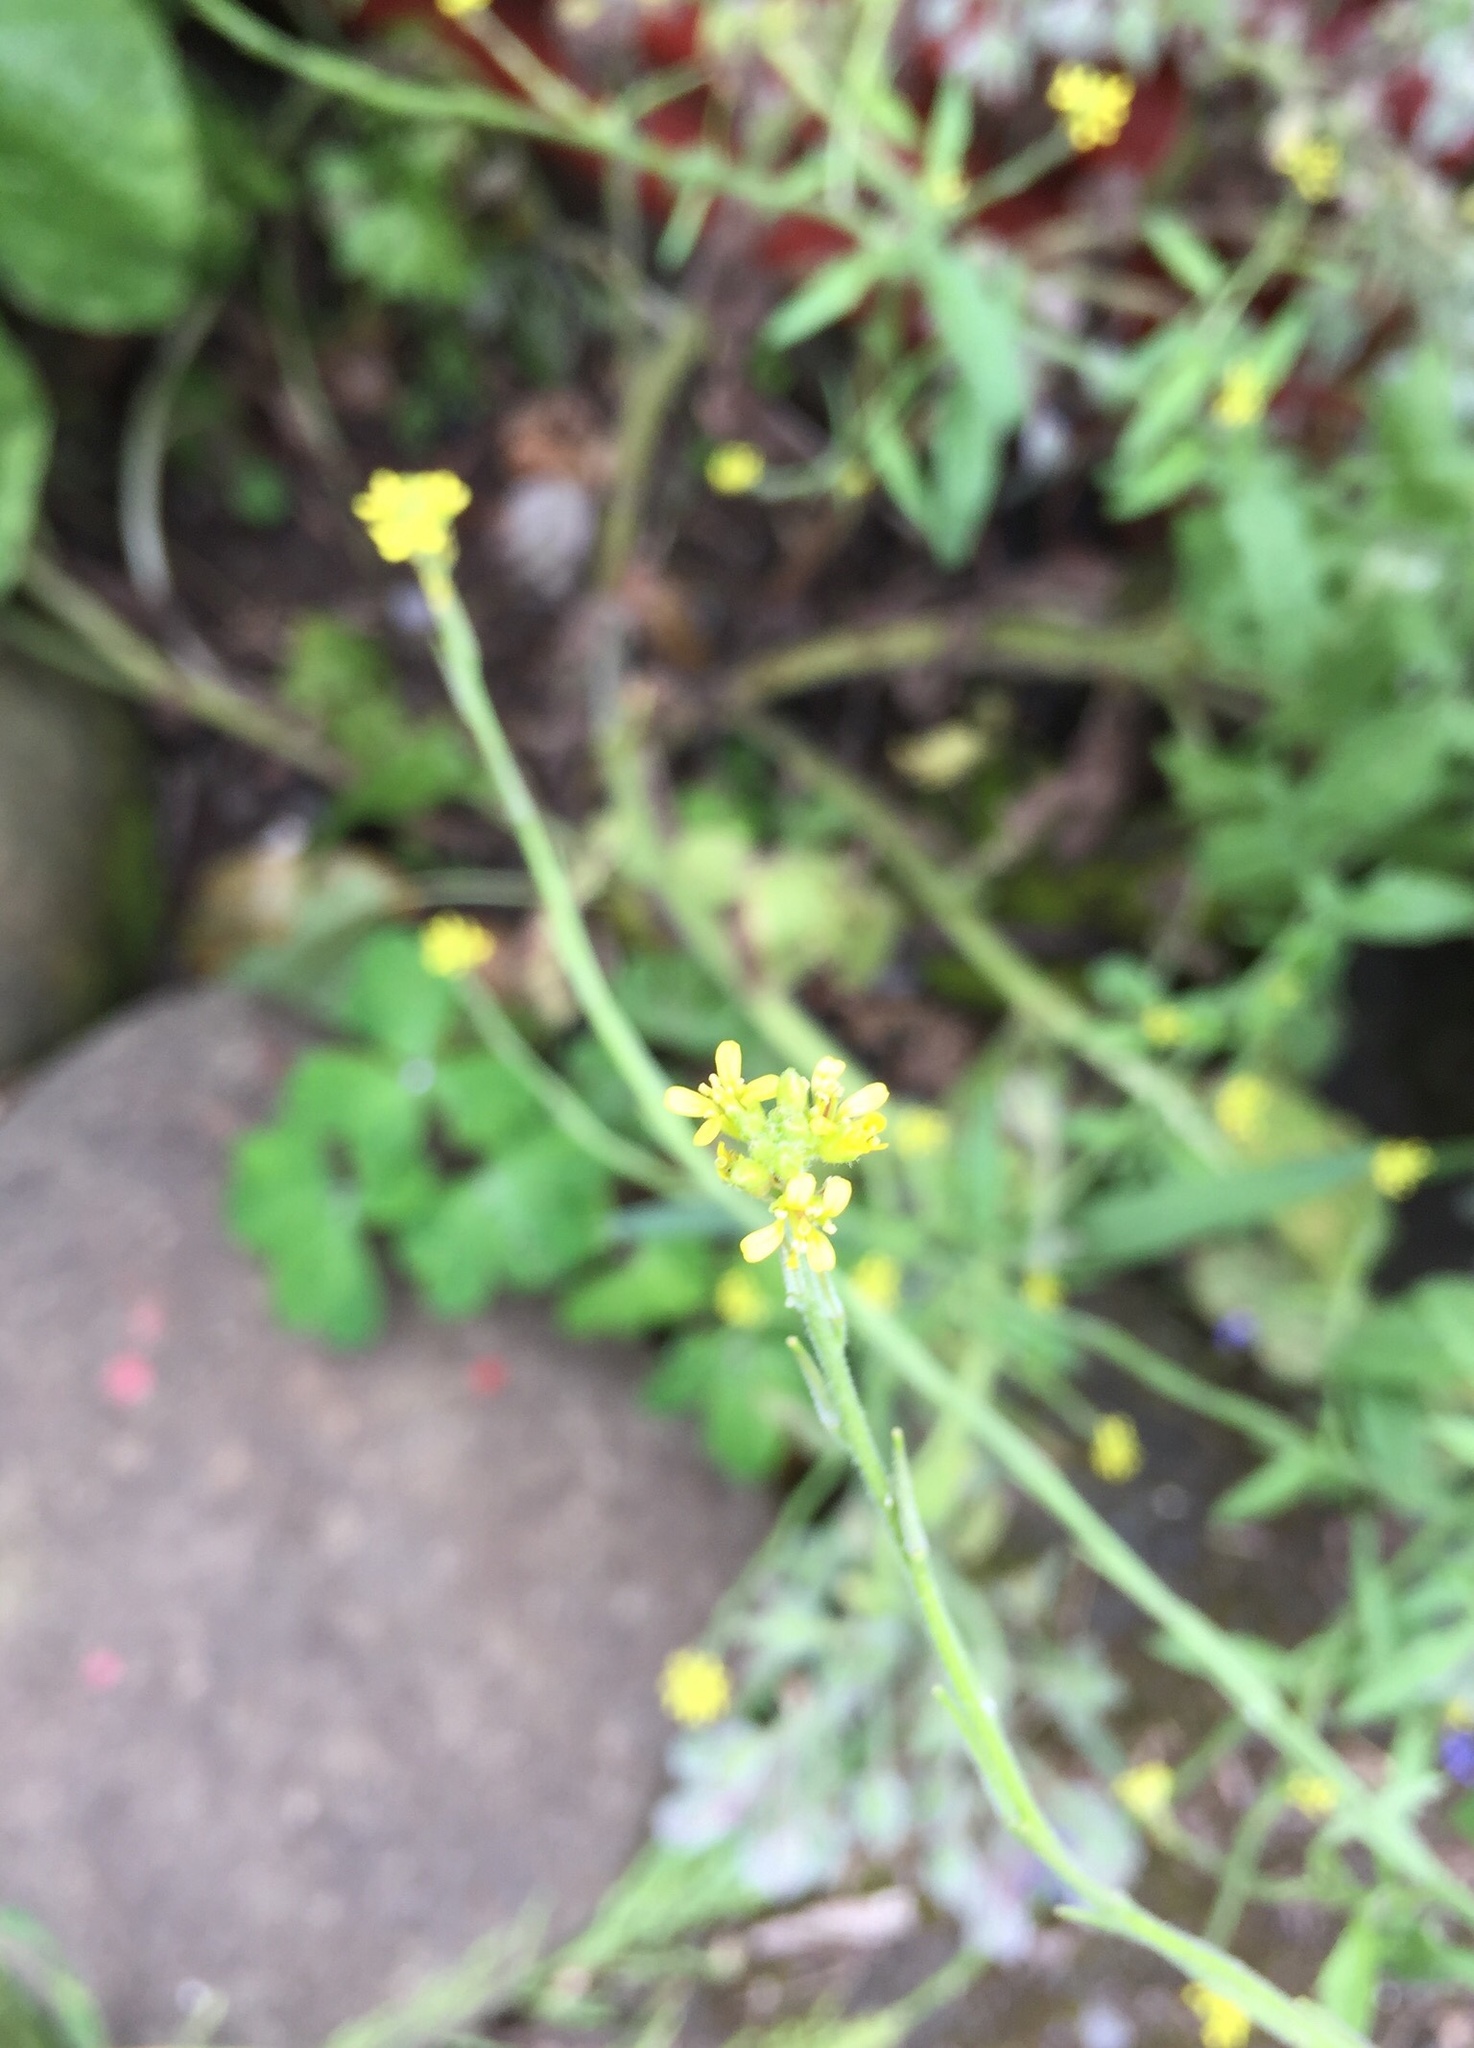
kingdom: Plantae
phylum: Tracheophyta
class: Magnoliopsida
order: Brassicales
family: Brassicaceae
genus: Sisymbrium
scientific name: Sisymbrium officinale
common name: Hedge mustard
